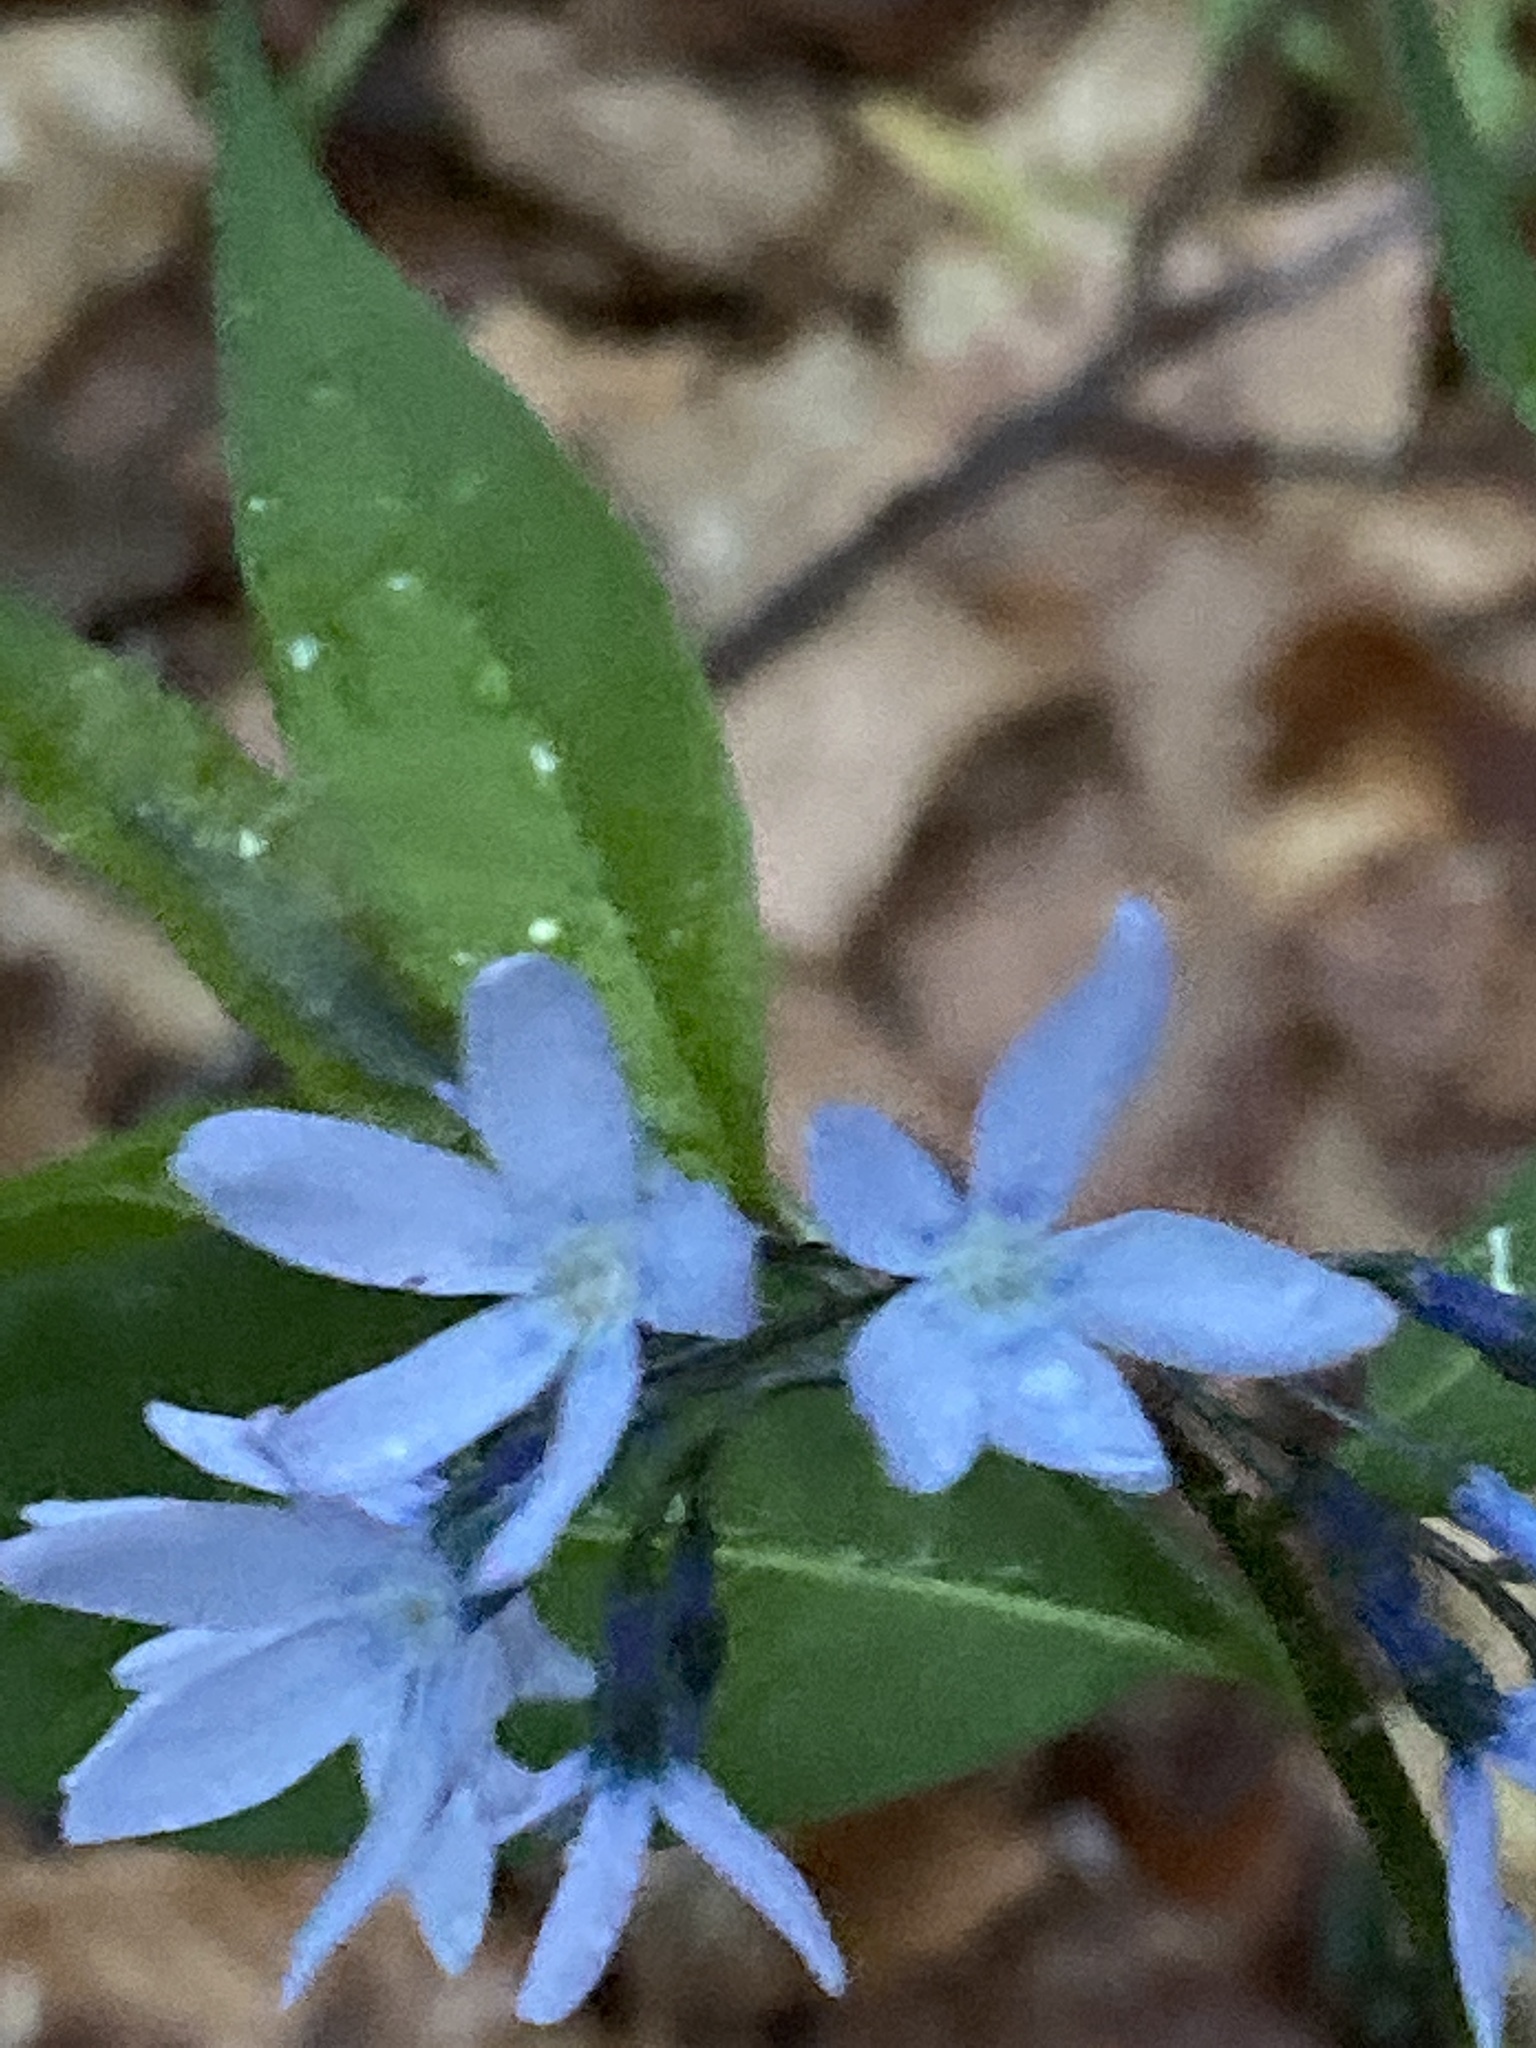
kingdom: Plantae
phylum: Tracheophyta
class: Magnoliopsida
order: Gentianales
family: Apocynaceae
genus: Amsonia
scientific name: Amsonia tabernaemontana
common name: Texas-star
